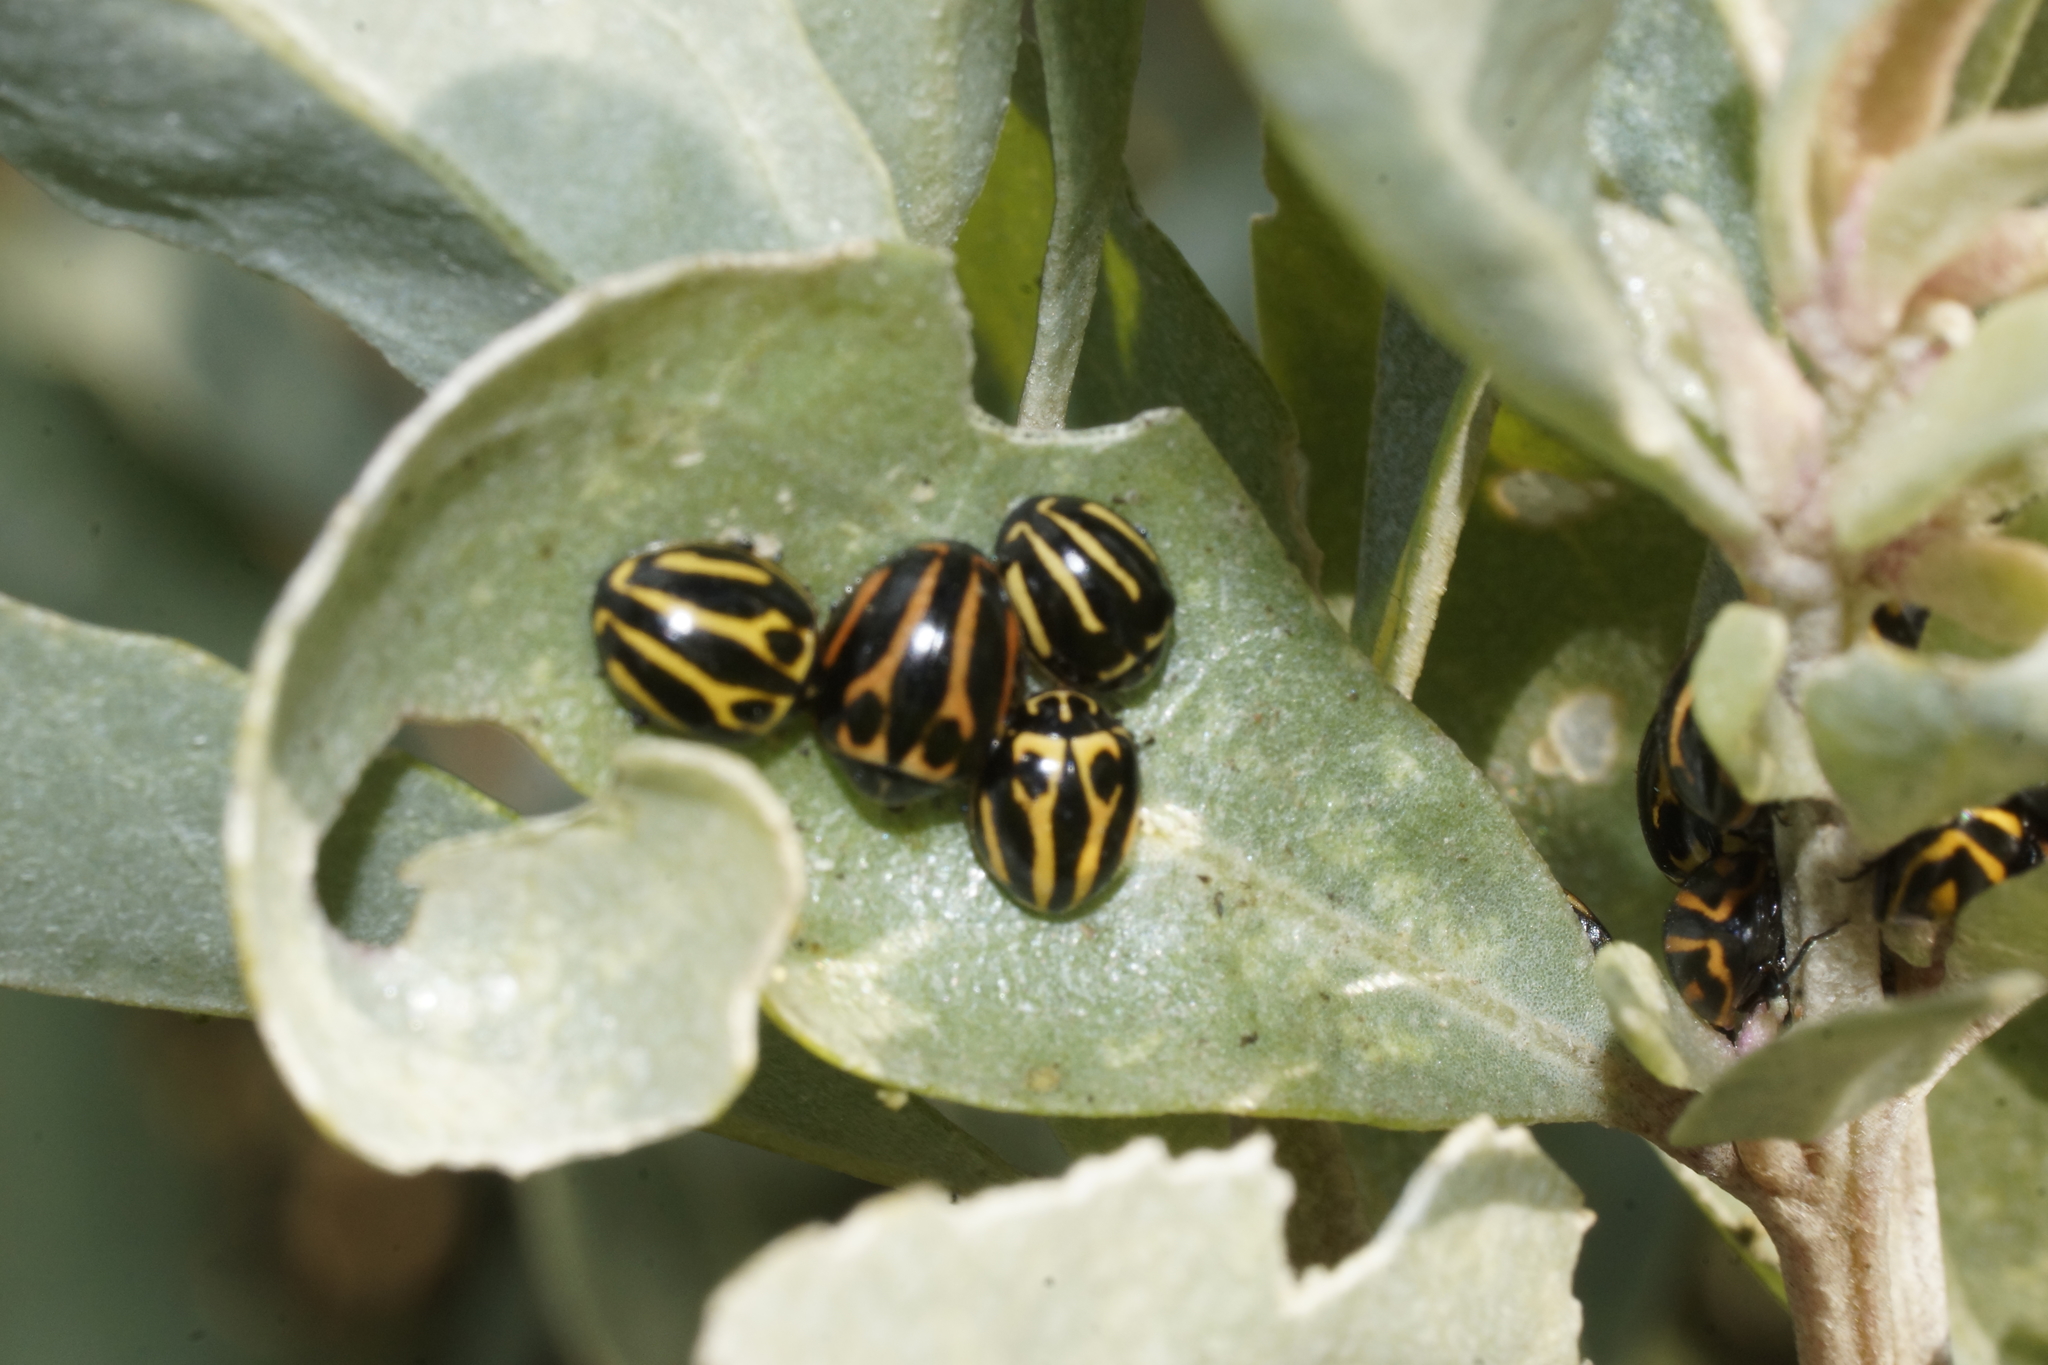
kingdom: Animalia
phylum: Arthropoda
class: Insecta
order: Coleoptera
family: Coccinellidae
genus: Micraspis
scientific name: Micraspis
